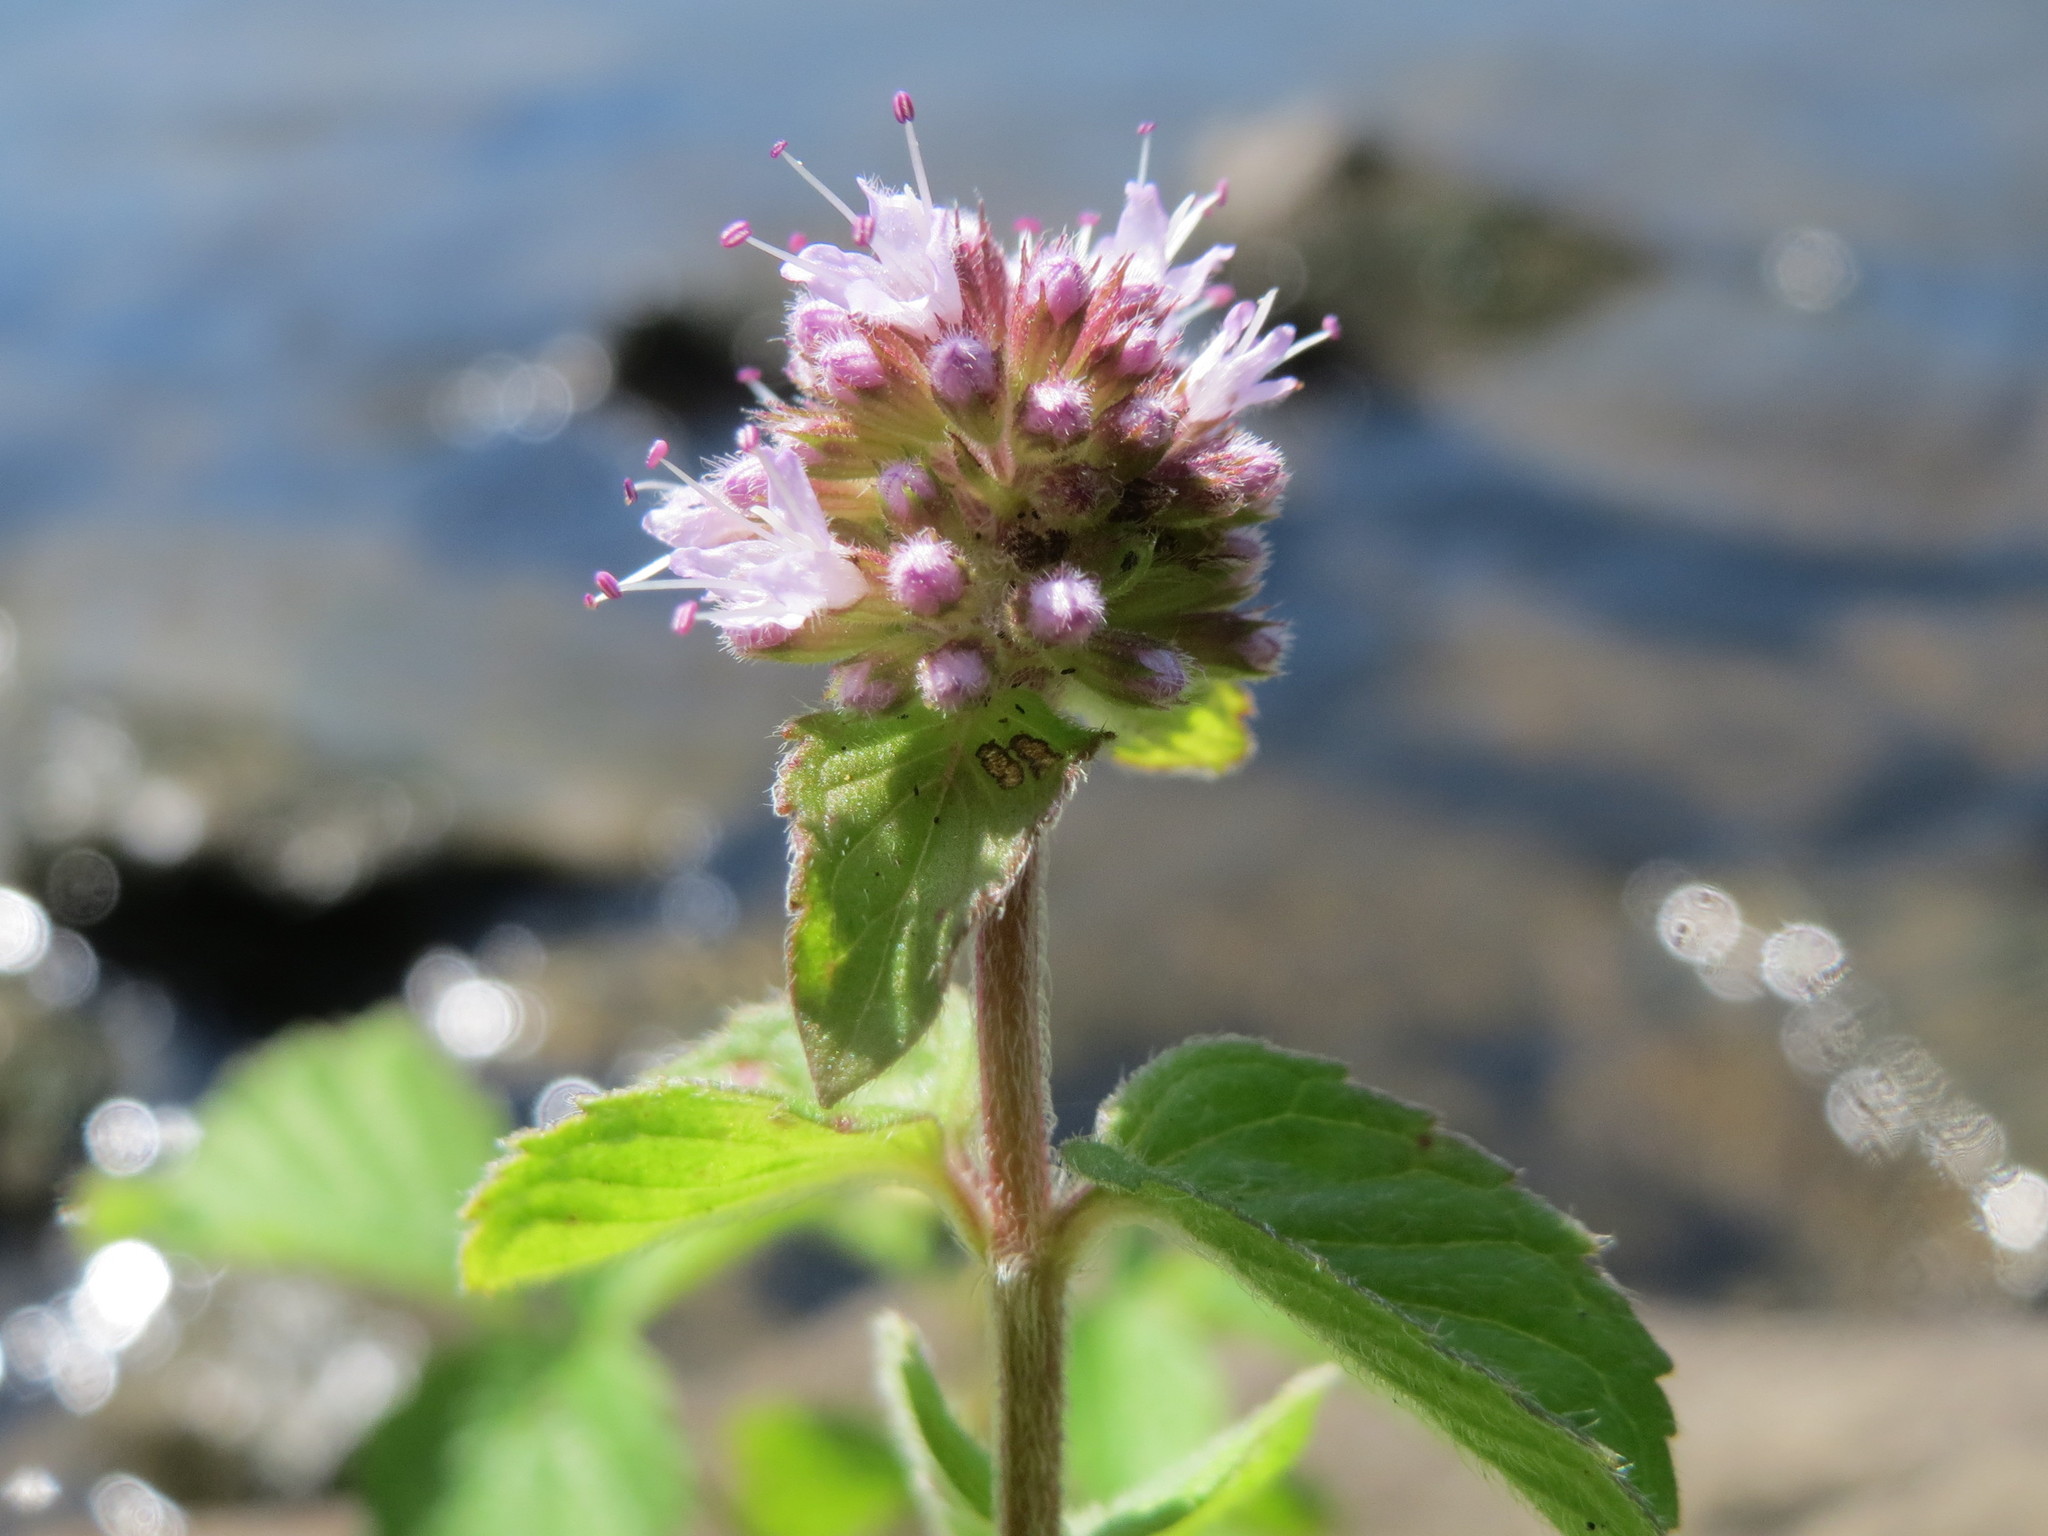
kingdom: Plantae
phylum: Tracheophyta
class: Magnoliopsida
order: Lamiales
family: Lamiaceae
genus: Mentha
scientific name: Mentha aquatica
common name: Water mint
